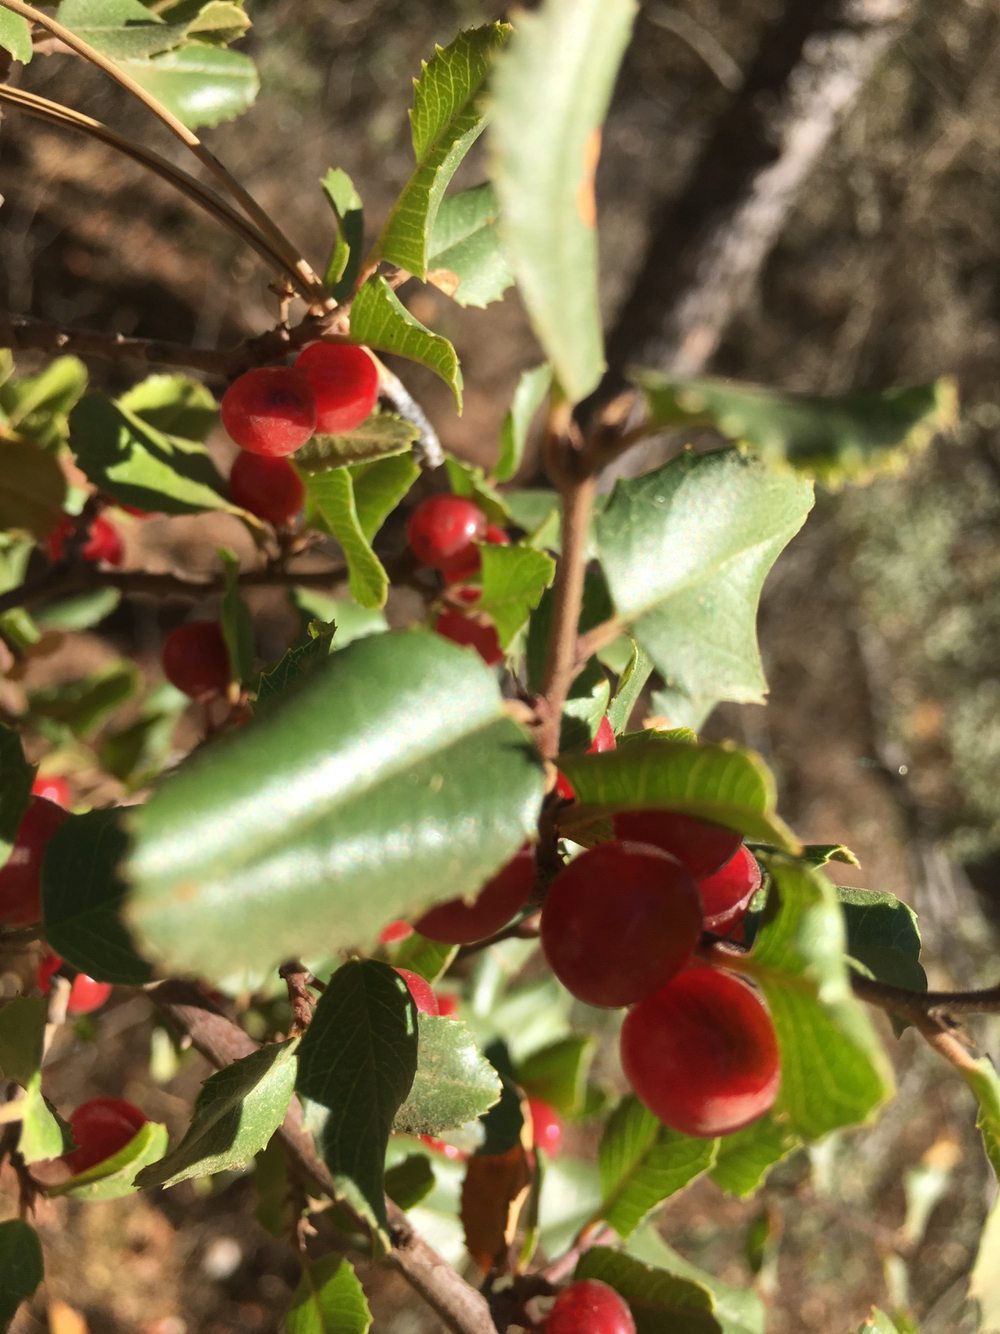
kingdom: Plantae
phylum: Tracheophyta
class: Magnoliopsida
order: Rosales
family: Rhamnaceae
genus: Endotropis
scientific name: Endotropis crocea
